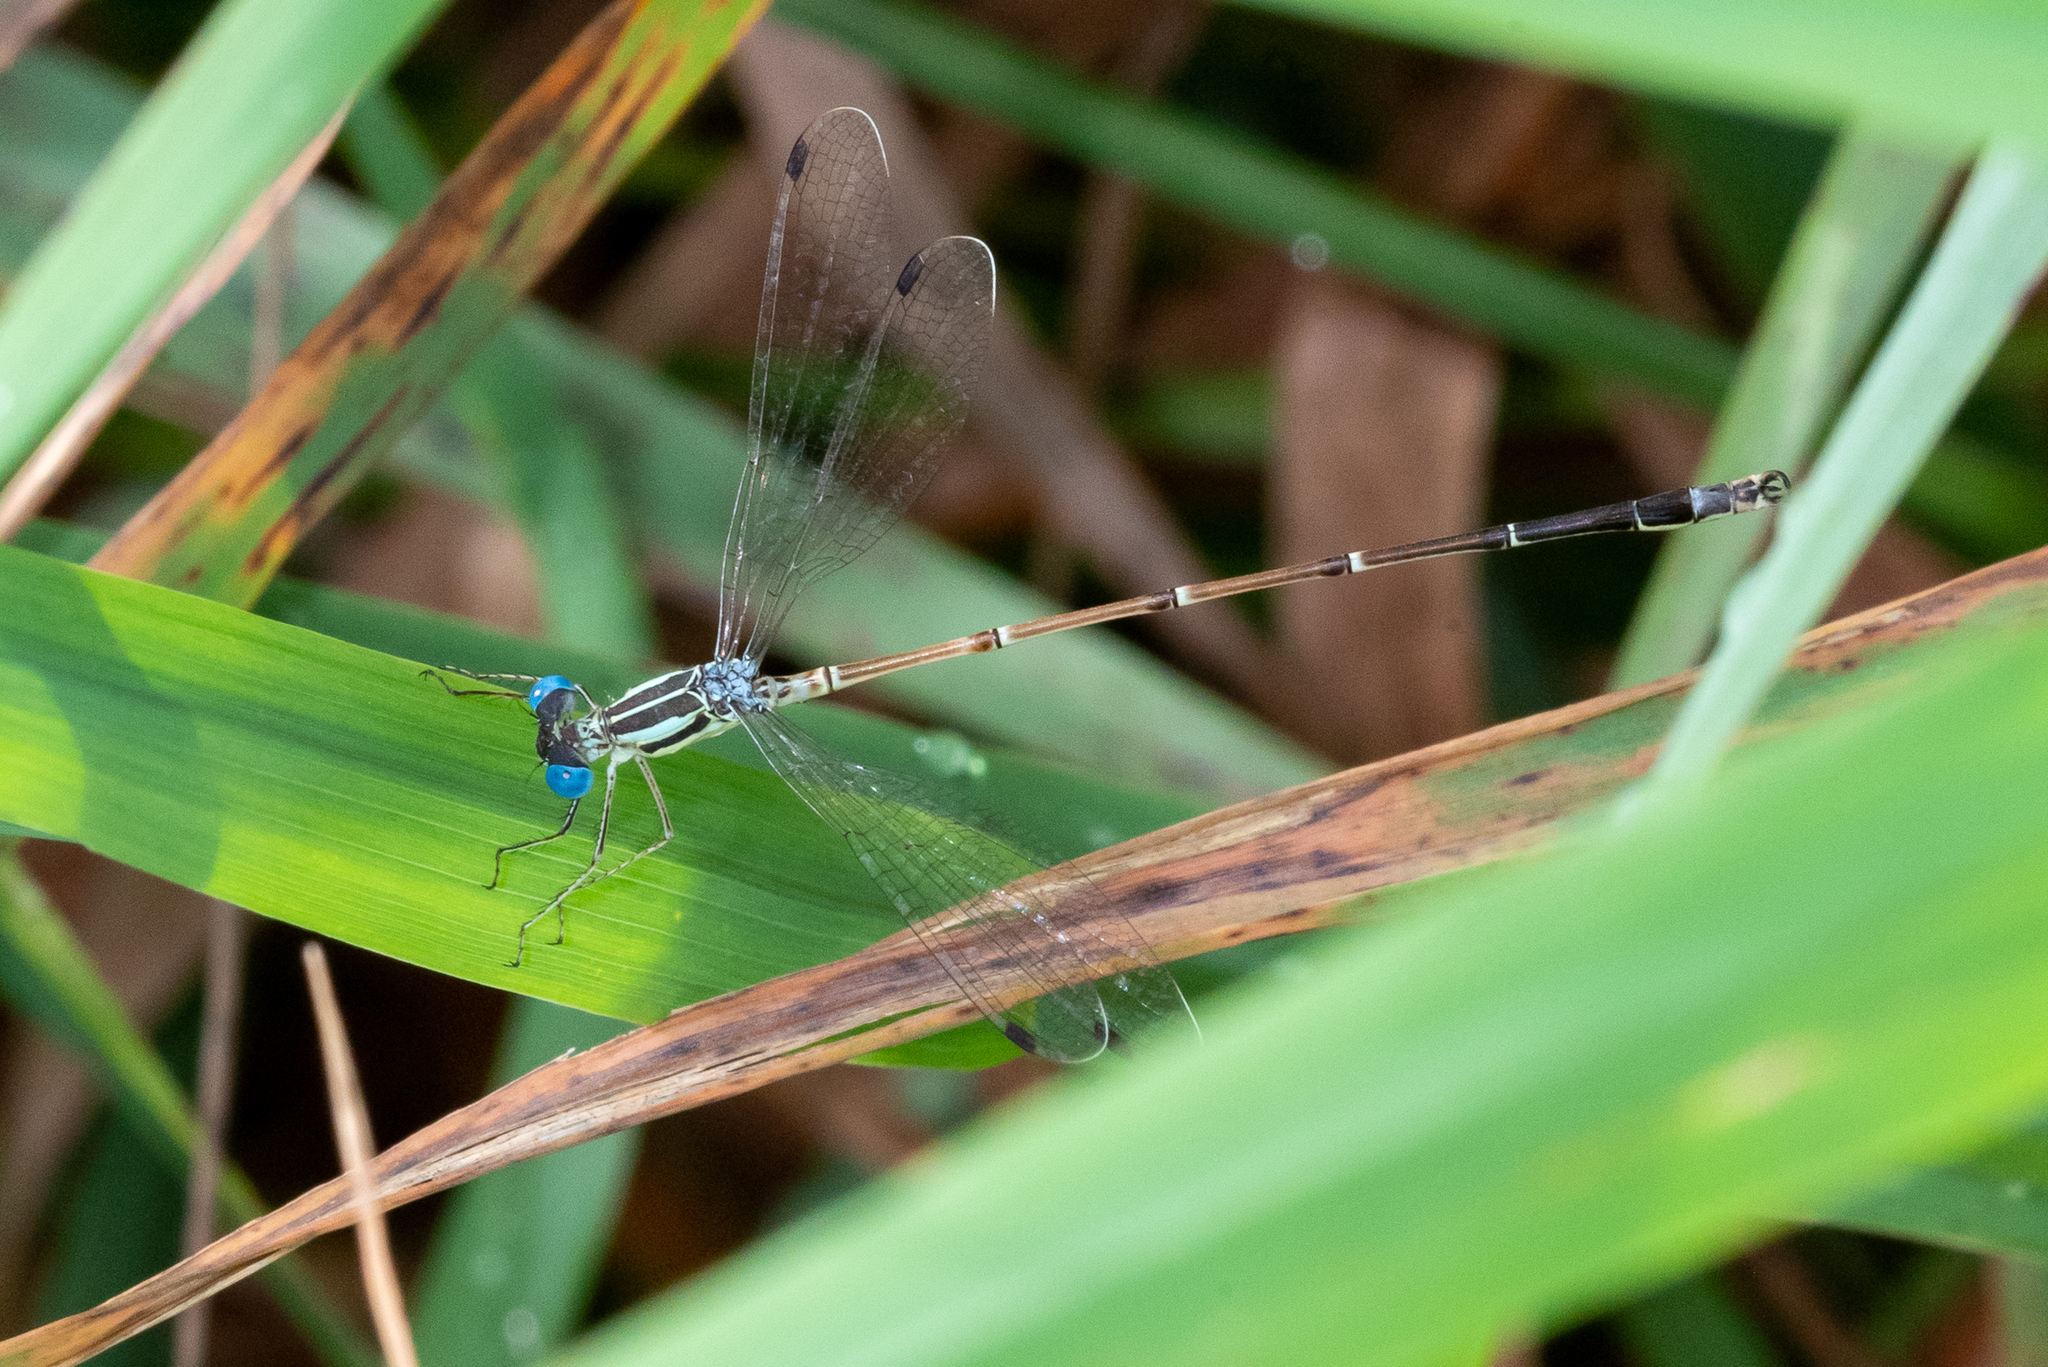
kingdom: Animalia
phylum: Arthropoda
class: Insecta
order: Odonata
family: Lestidae
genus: Lestes
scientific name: Lestes rectangularis
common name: Slender spreadwing
